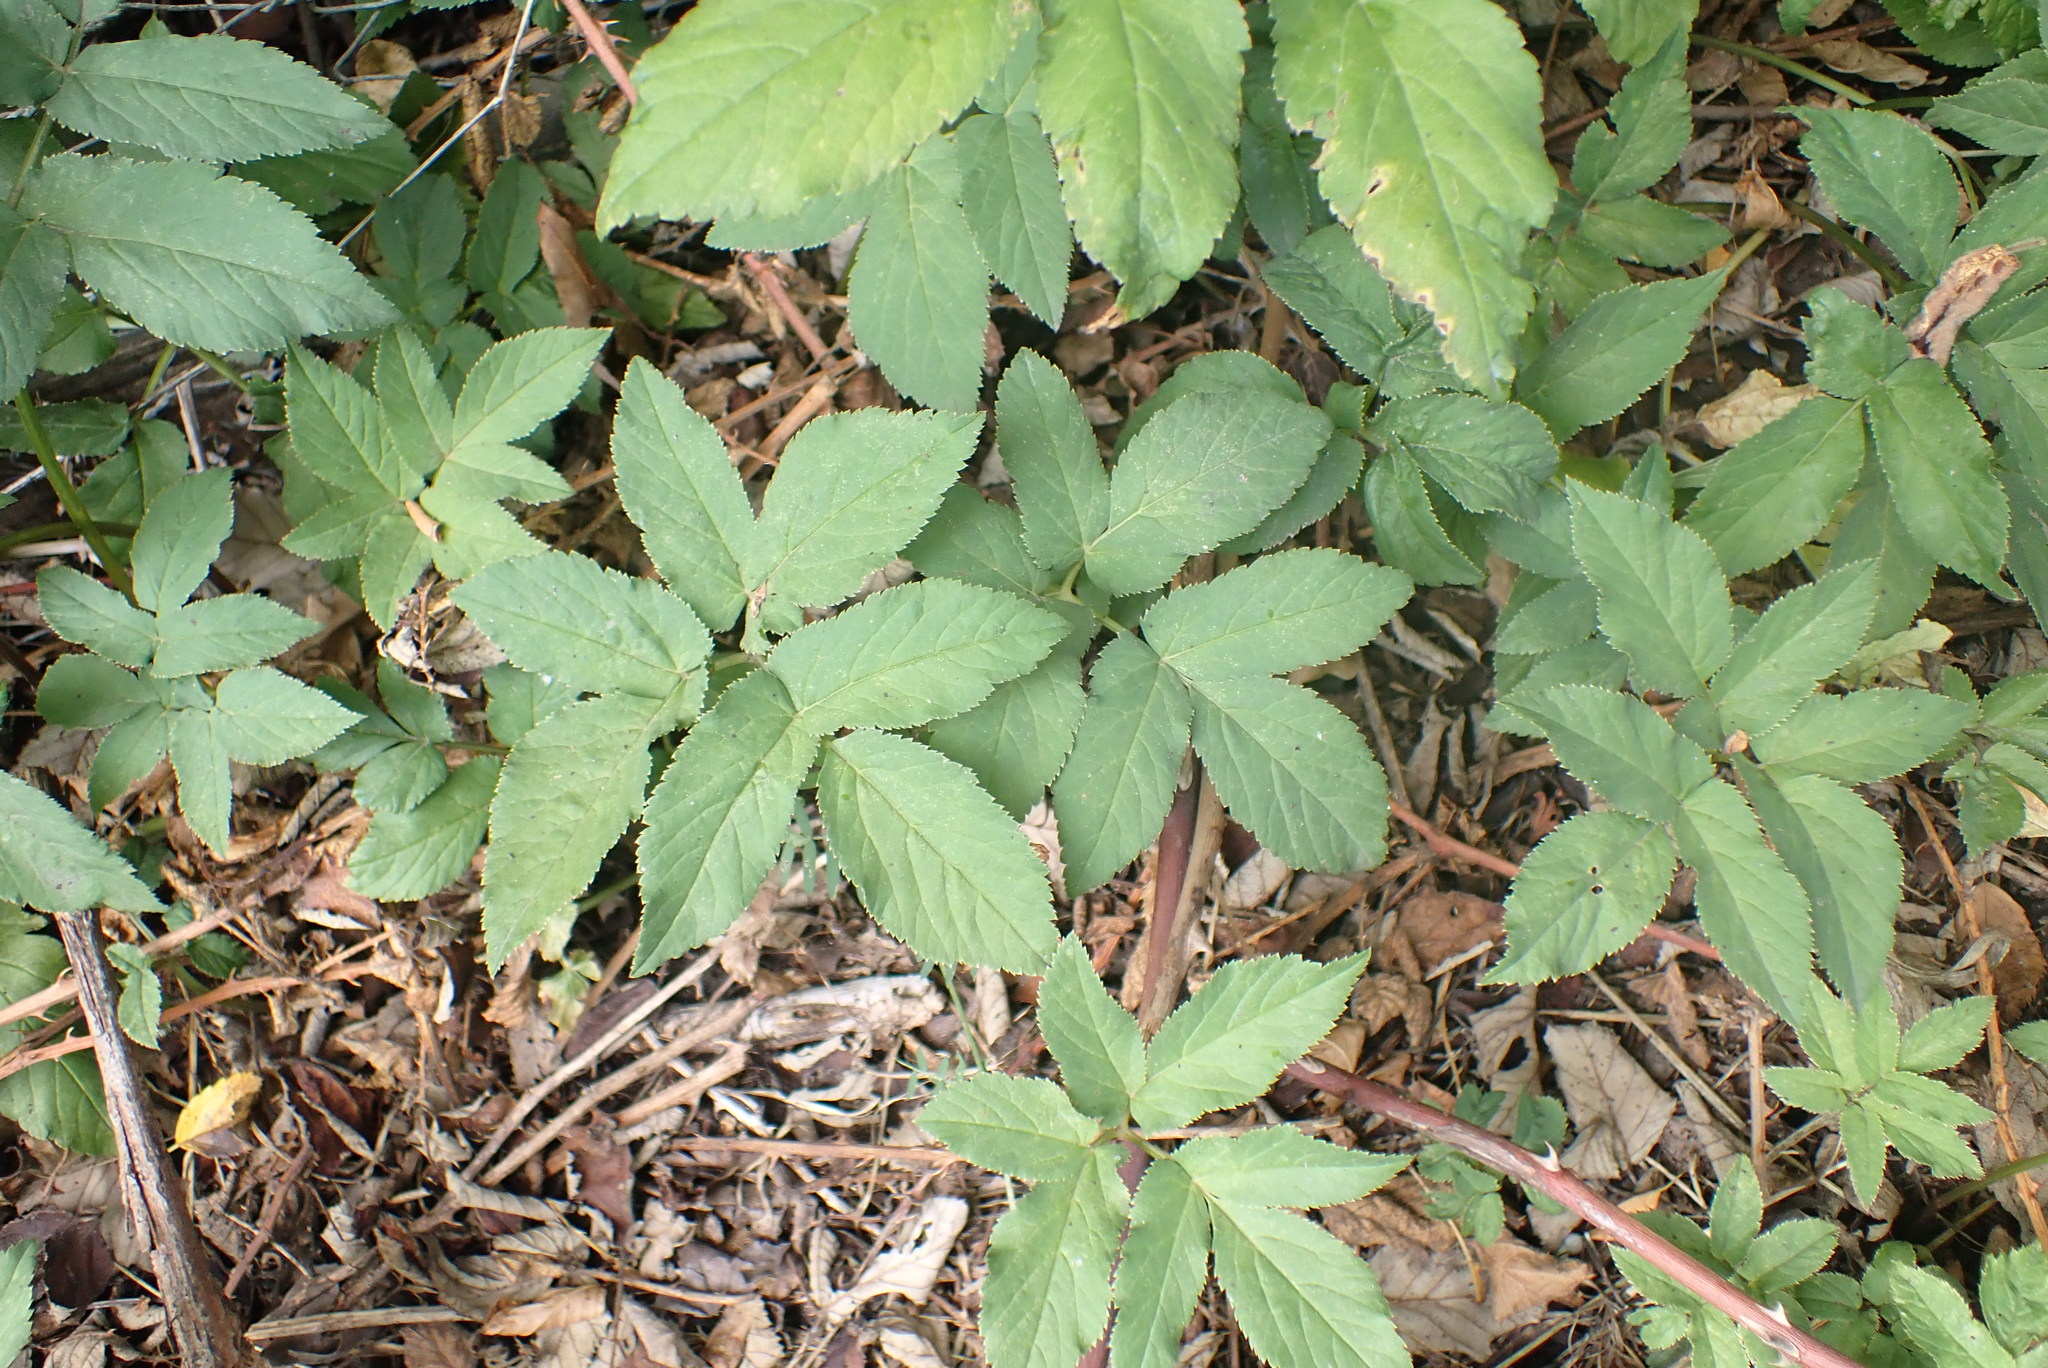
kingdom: Plantae
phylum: Tracheophyta
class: Magnoliopsida
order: Apiales
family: Apiaceae
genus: Aegopodium
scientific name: Aegopodium podagraria
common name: Ground-elder
